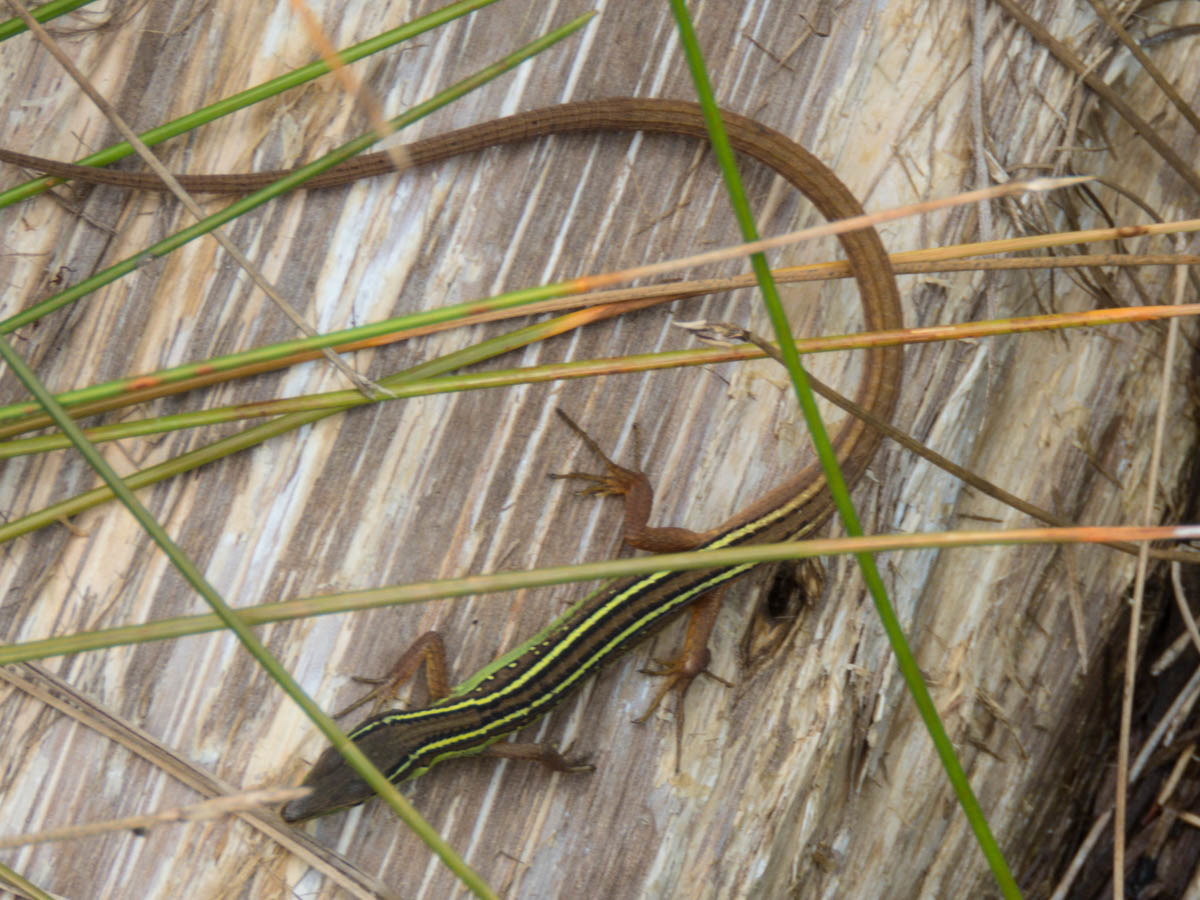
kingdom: Animalia
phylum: Chordata
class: Squamata
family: Lacertidae
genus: Takydromus
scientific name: Takydromus sexlineatus
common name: Asian grass lizard
